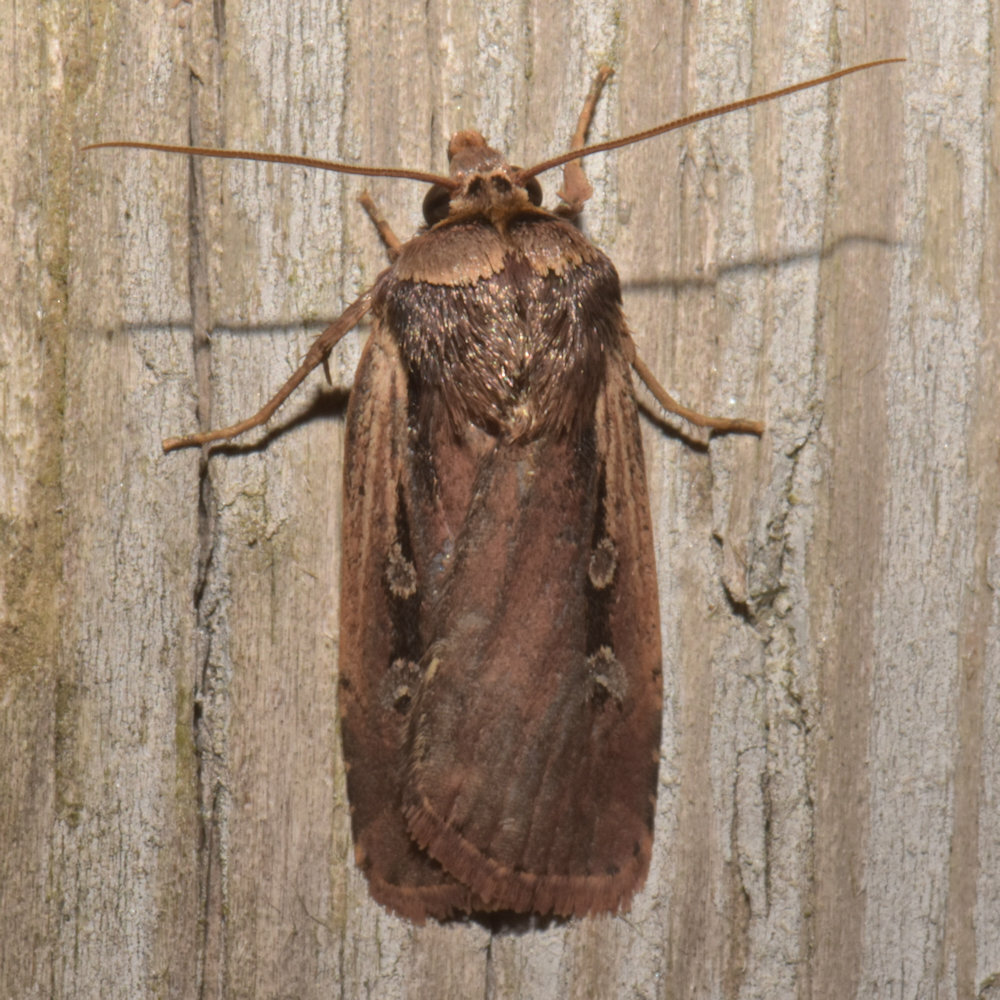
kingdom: Animalia
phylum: Arthropoda
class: Insecta
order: Lepidoptera
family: Noctuidae
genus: Ochropleura
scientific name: Ochropleura implecta
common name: Flame-shouldered dart
